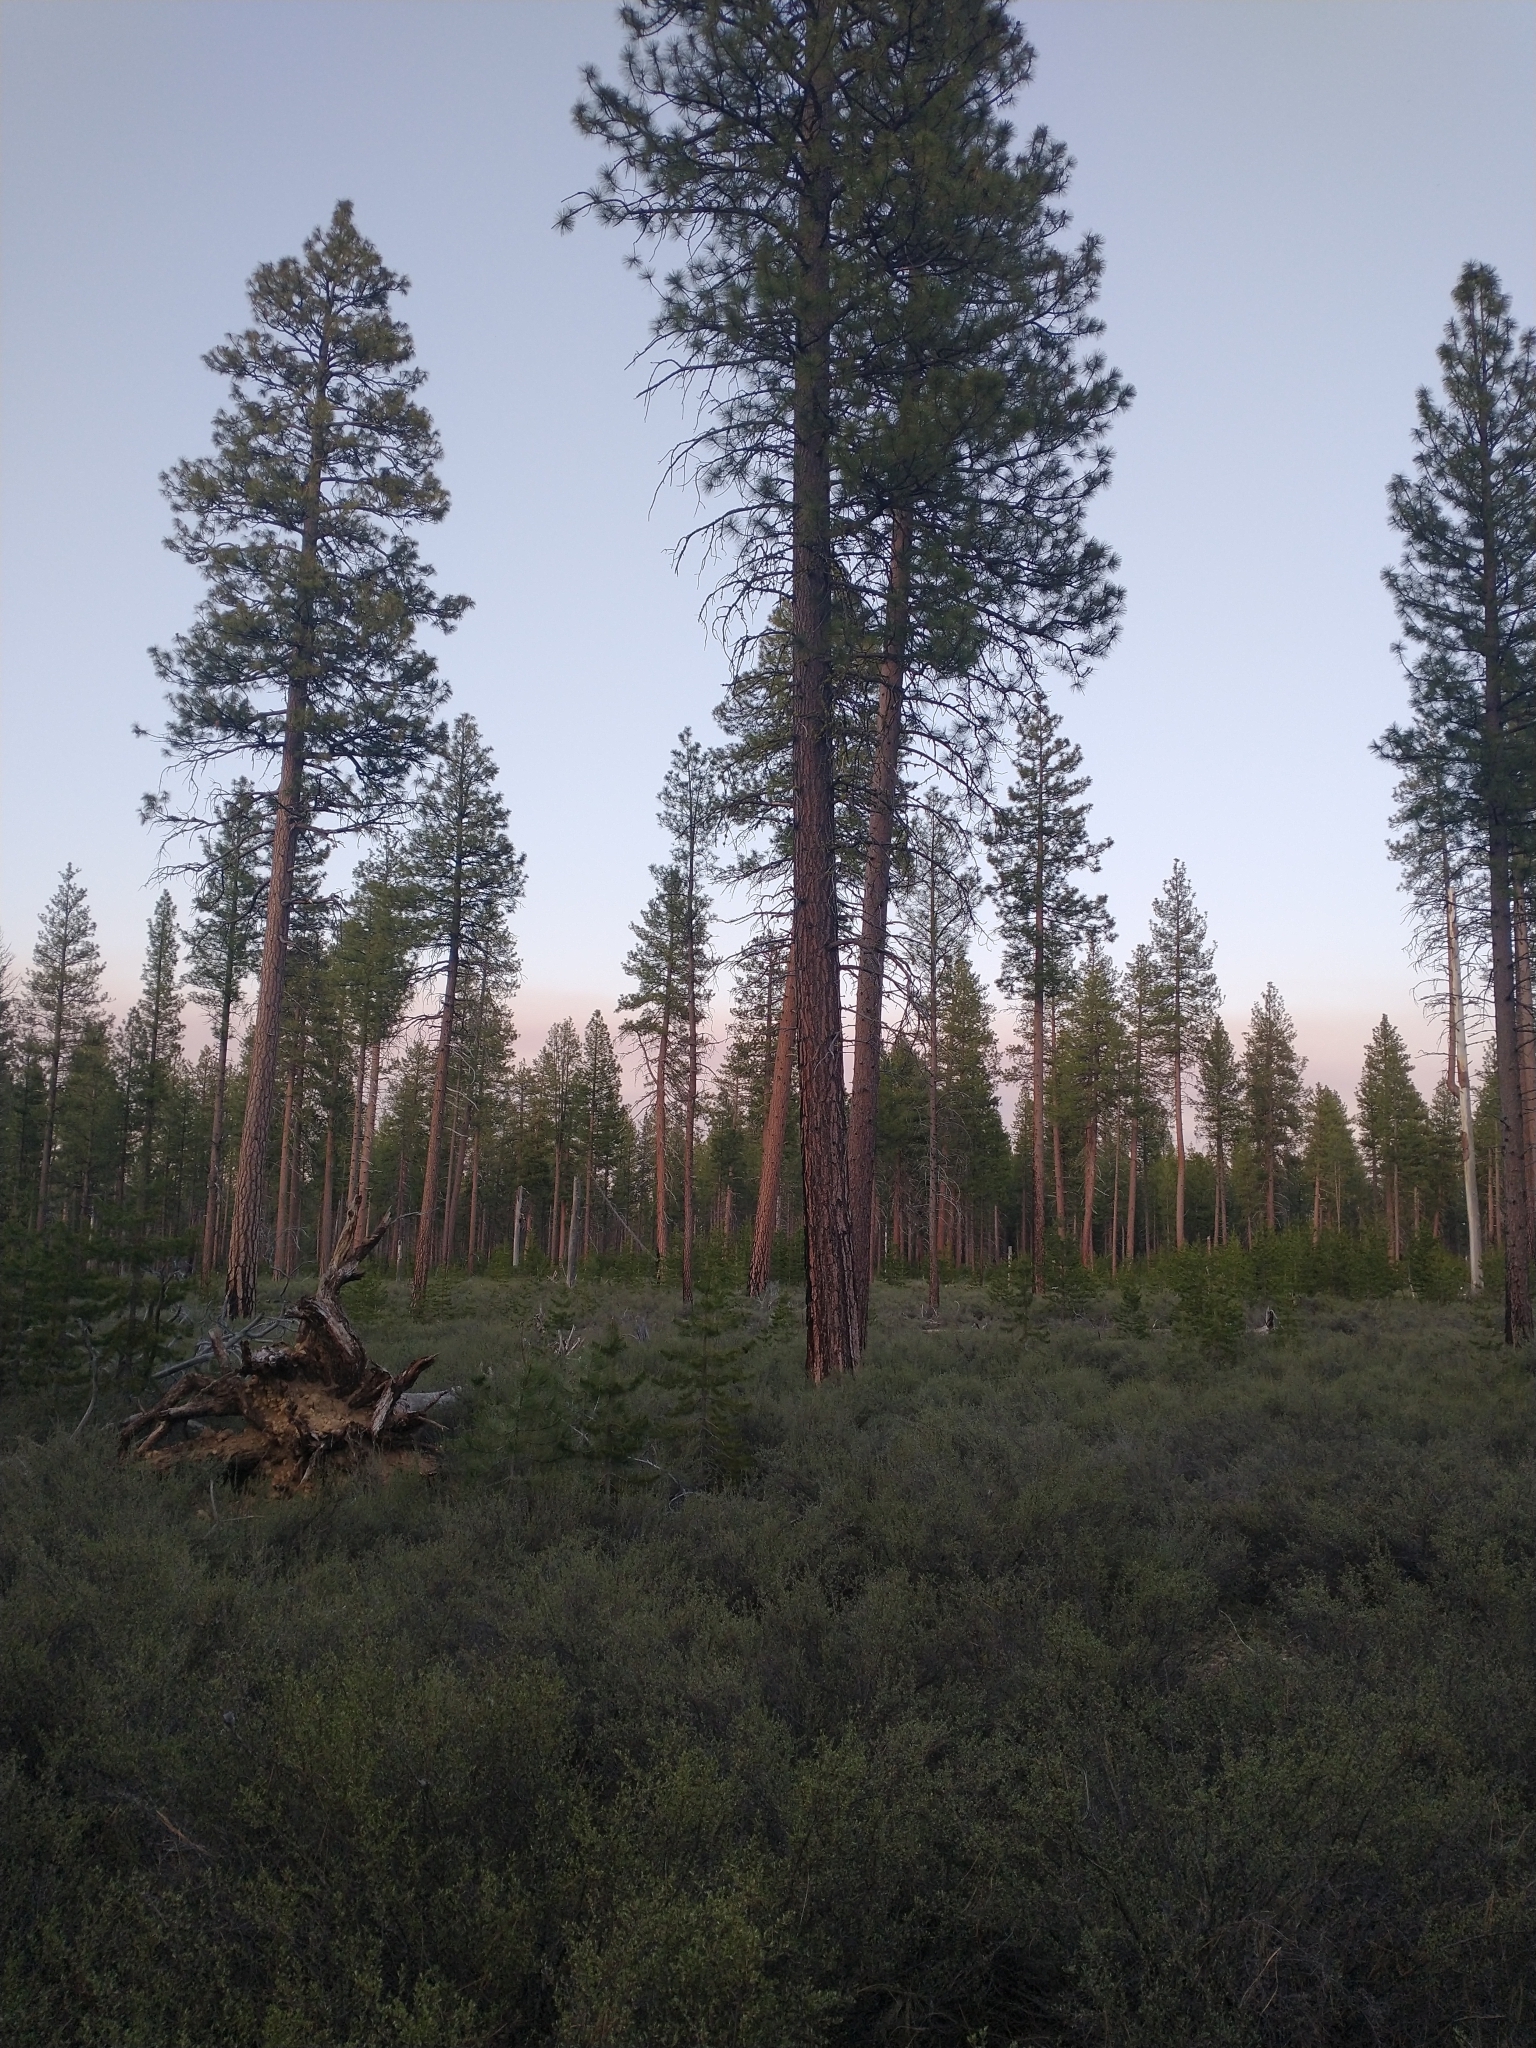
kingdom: Plantae
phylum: Tracheophyta
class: Pinopsida
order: Pinales
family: Pinaceae
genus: Pinus
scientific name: Pinus ponderosa
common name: Western yellow-pine
